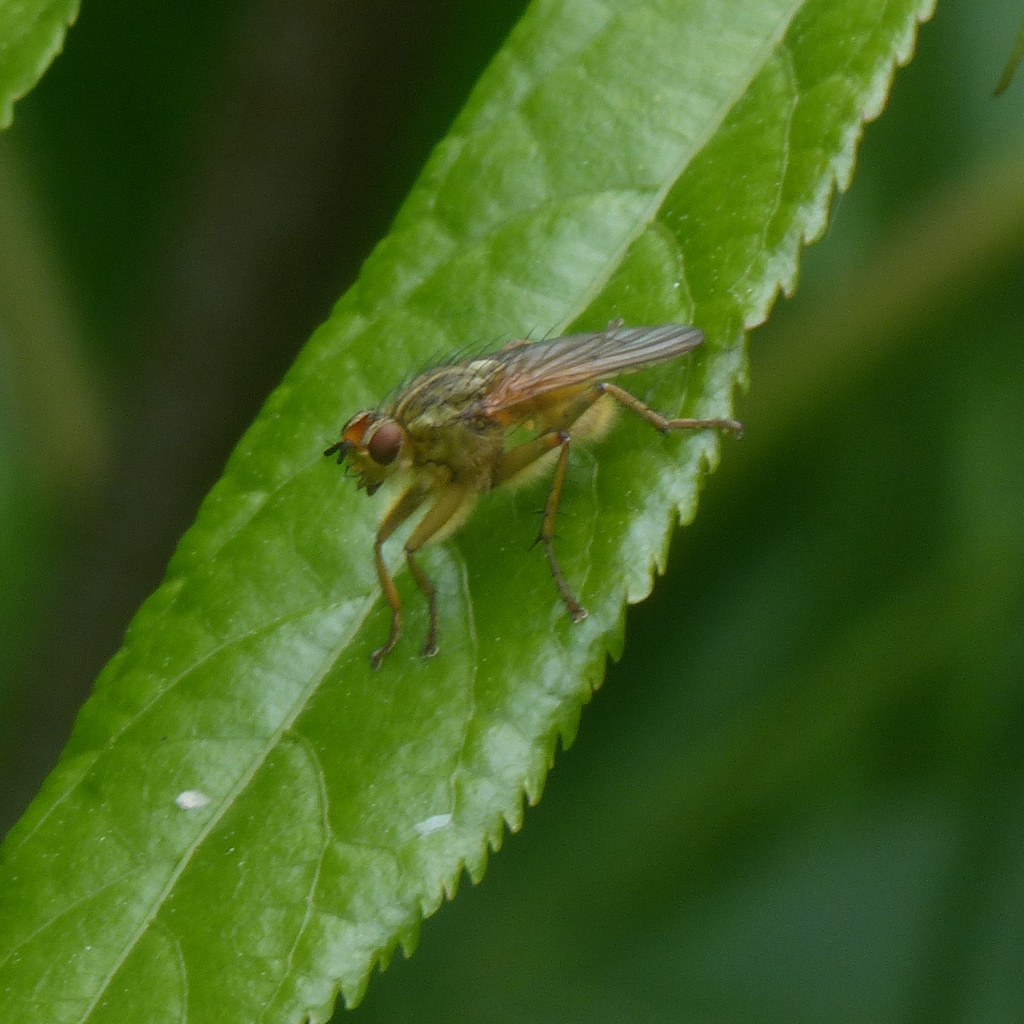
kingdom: Animalia
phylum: Arthropoda
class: Insecta
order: Diptera
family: Scathophagidae
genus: Scathophaga
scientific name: Scathophaga stercoraria
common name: Yellow dung fly
